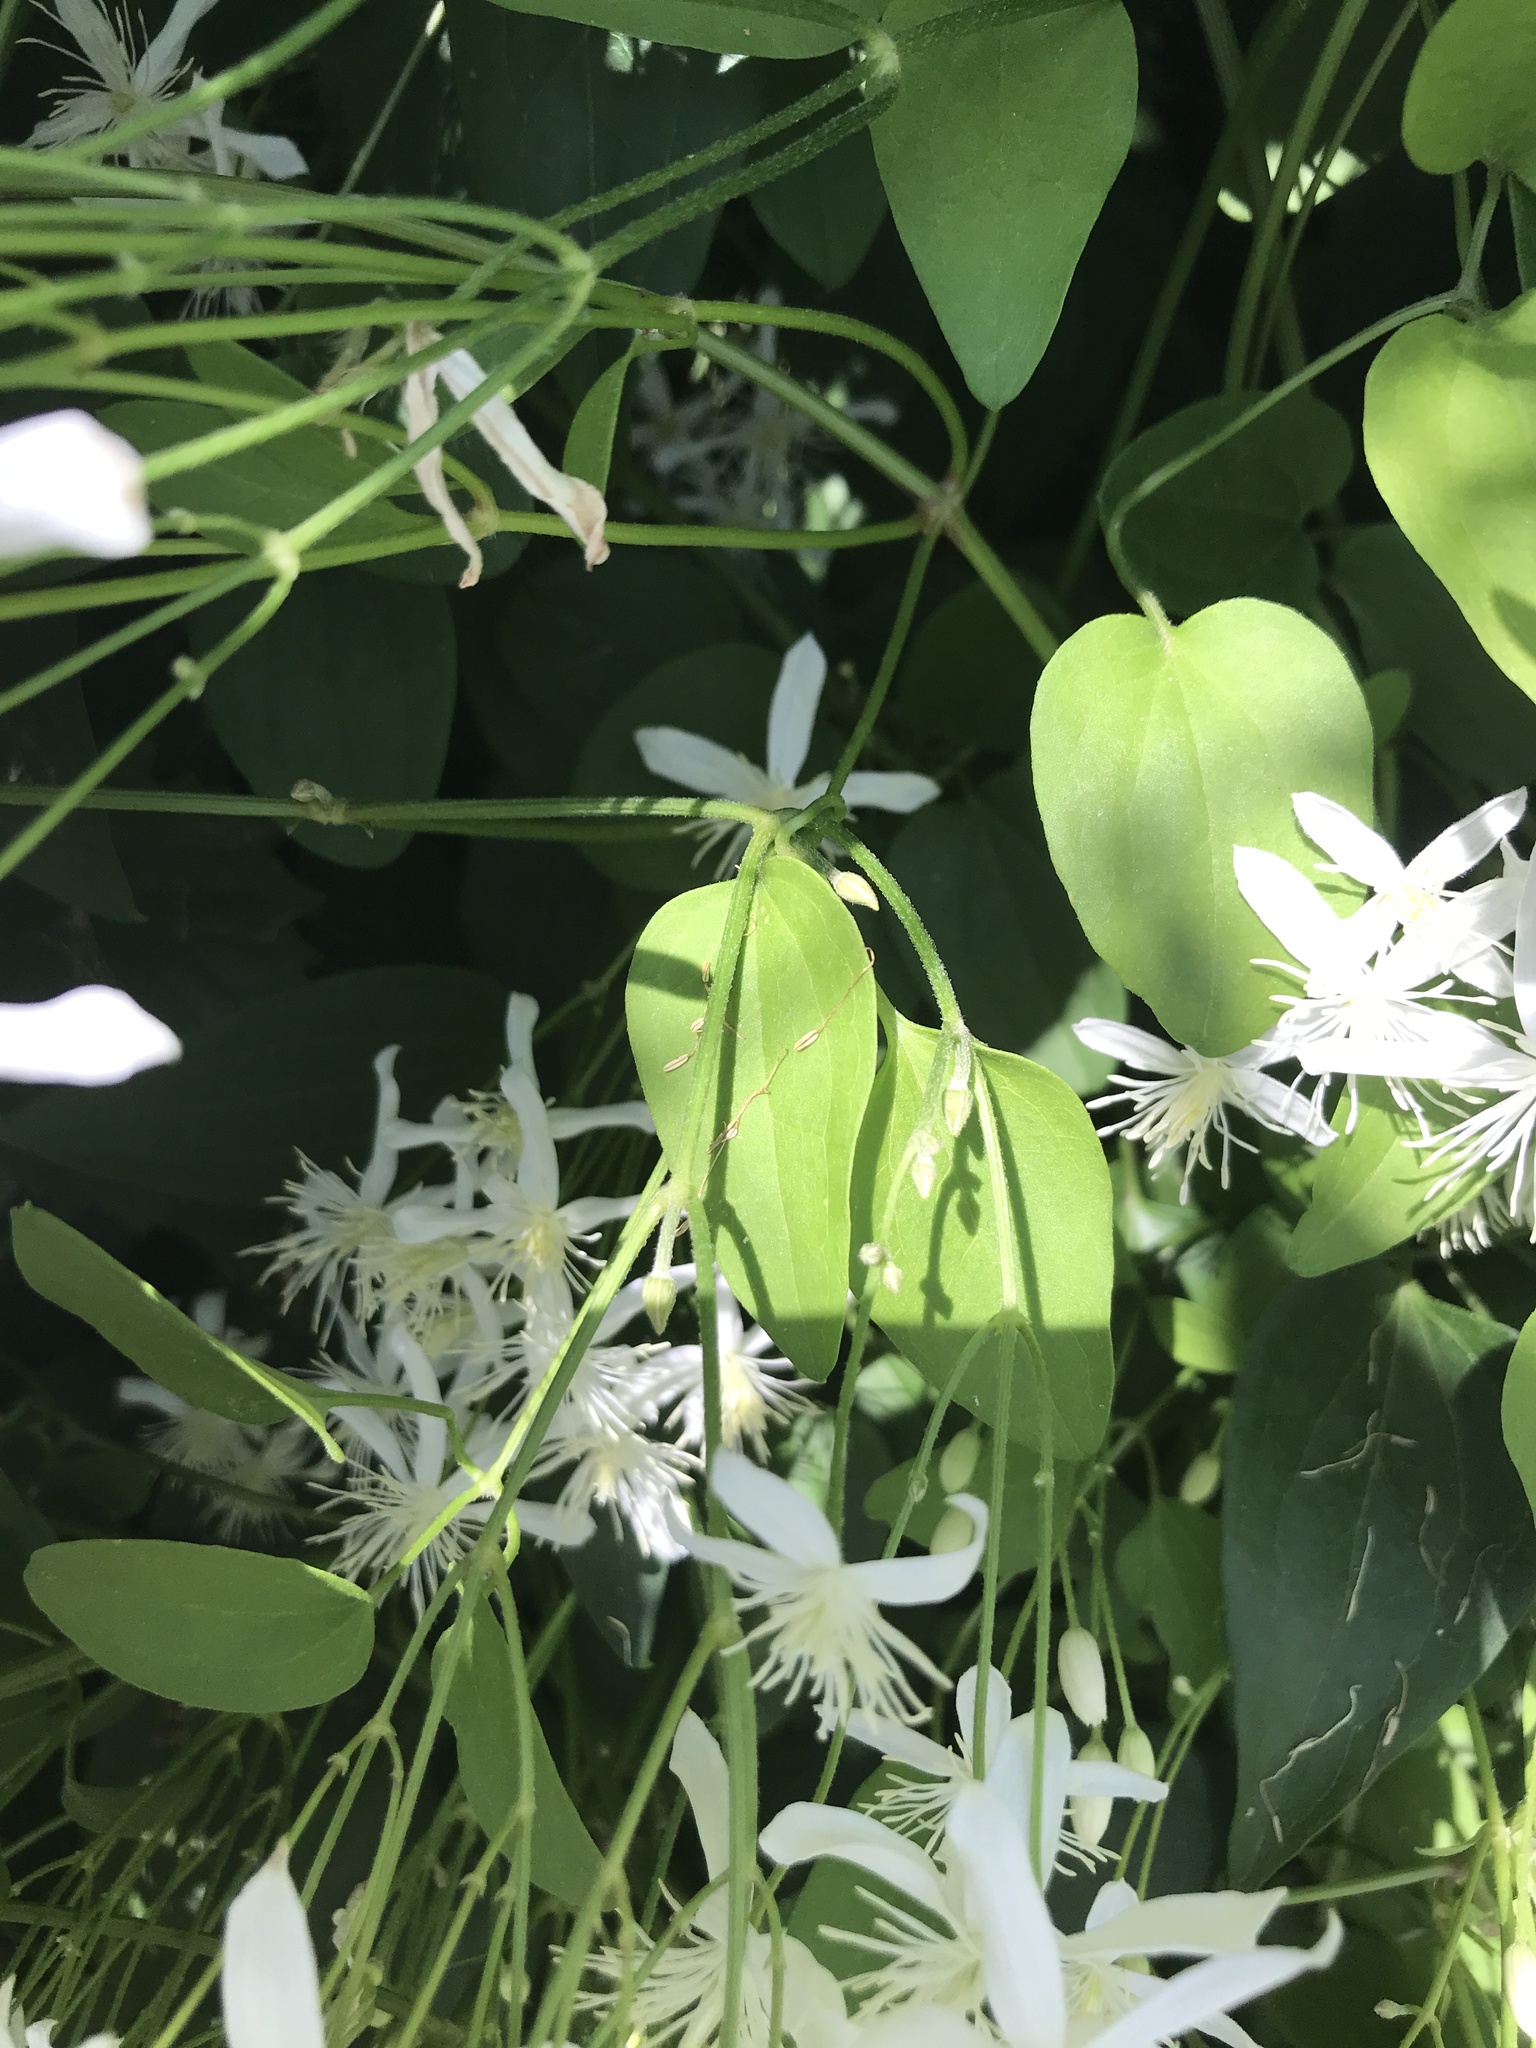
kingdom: Plantae
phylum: Tracheophyta
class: Magnoliopsida
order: Ranunculales
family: Ranunculaceae
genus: Clematis
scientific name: Clematis terniflora
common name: Sweet autumn clematis
